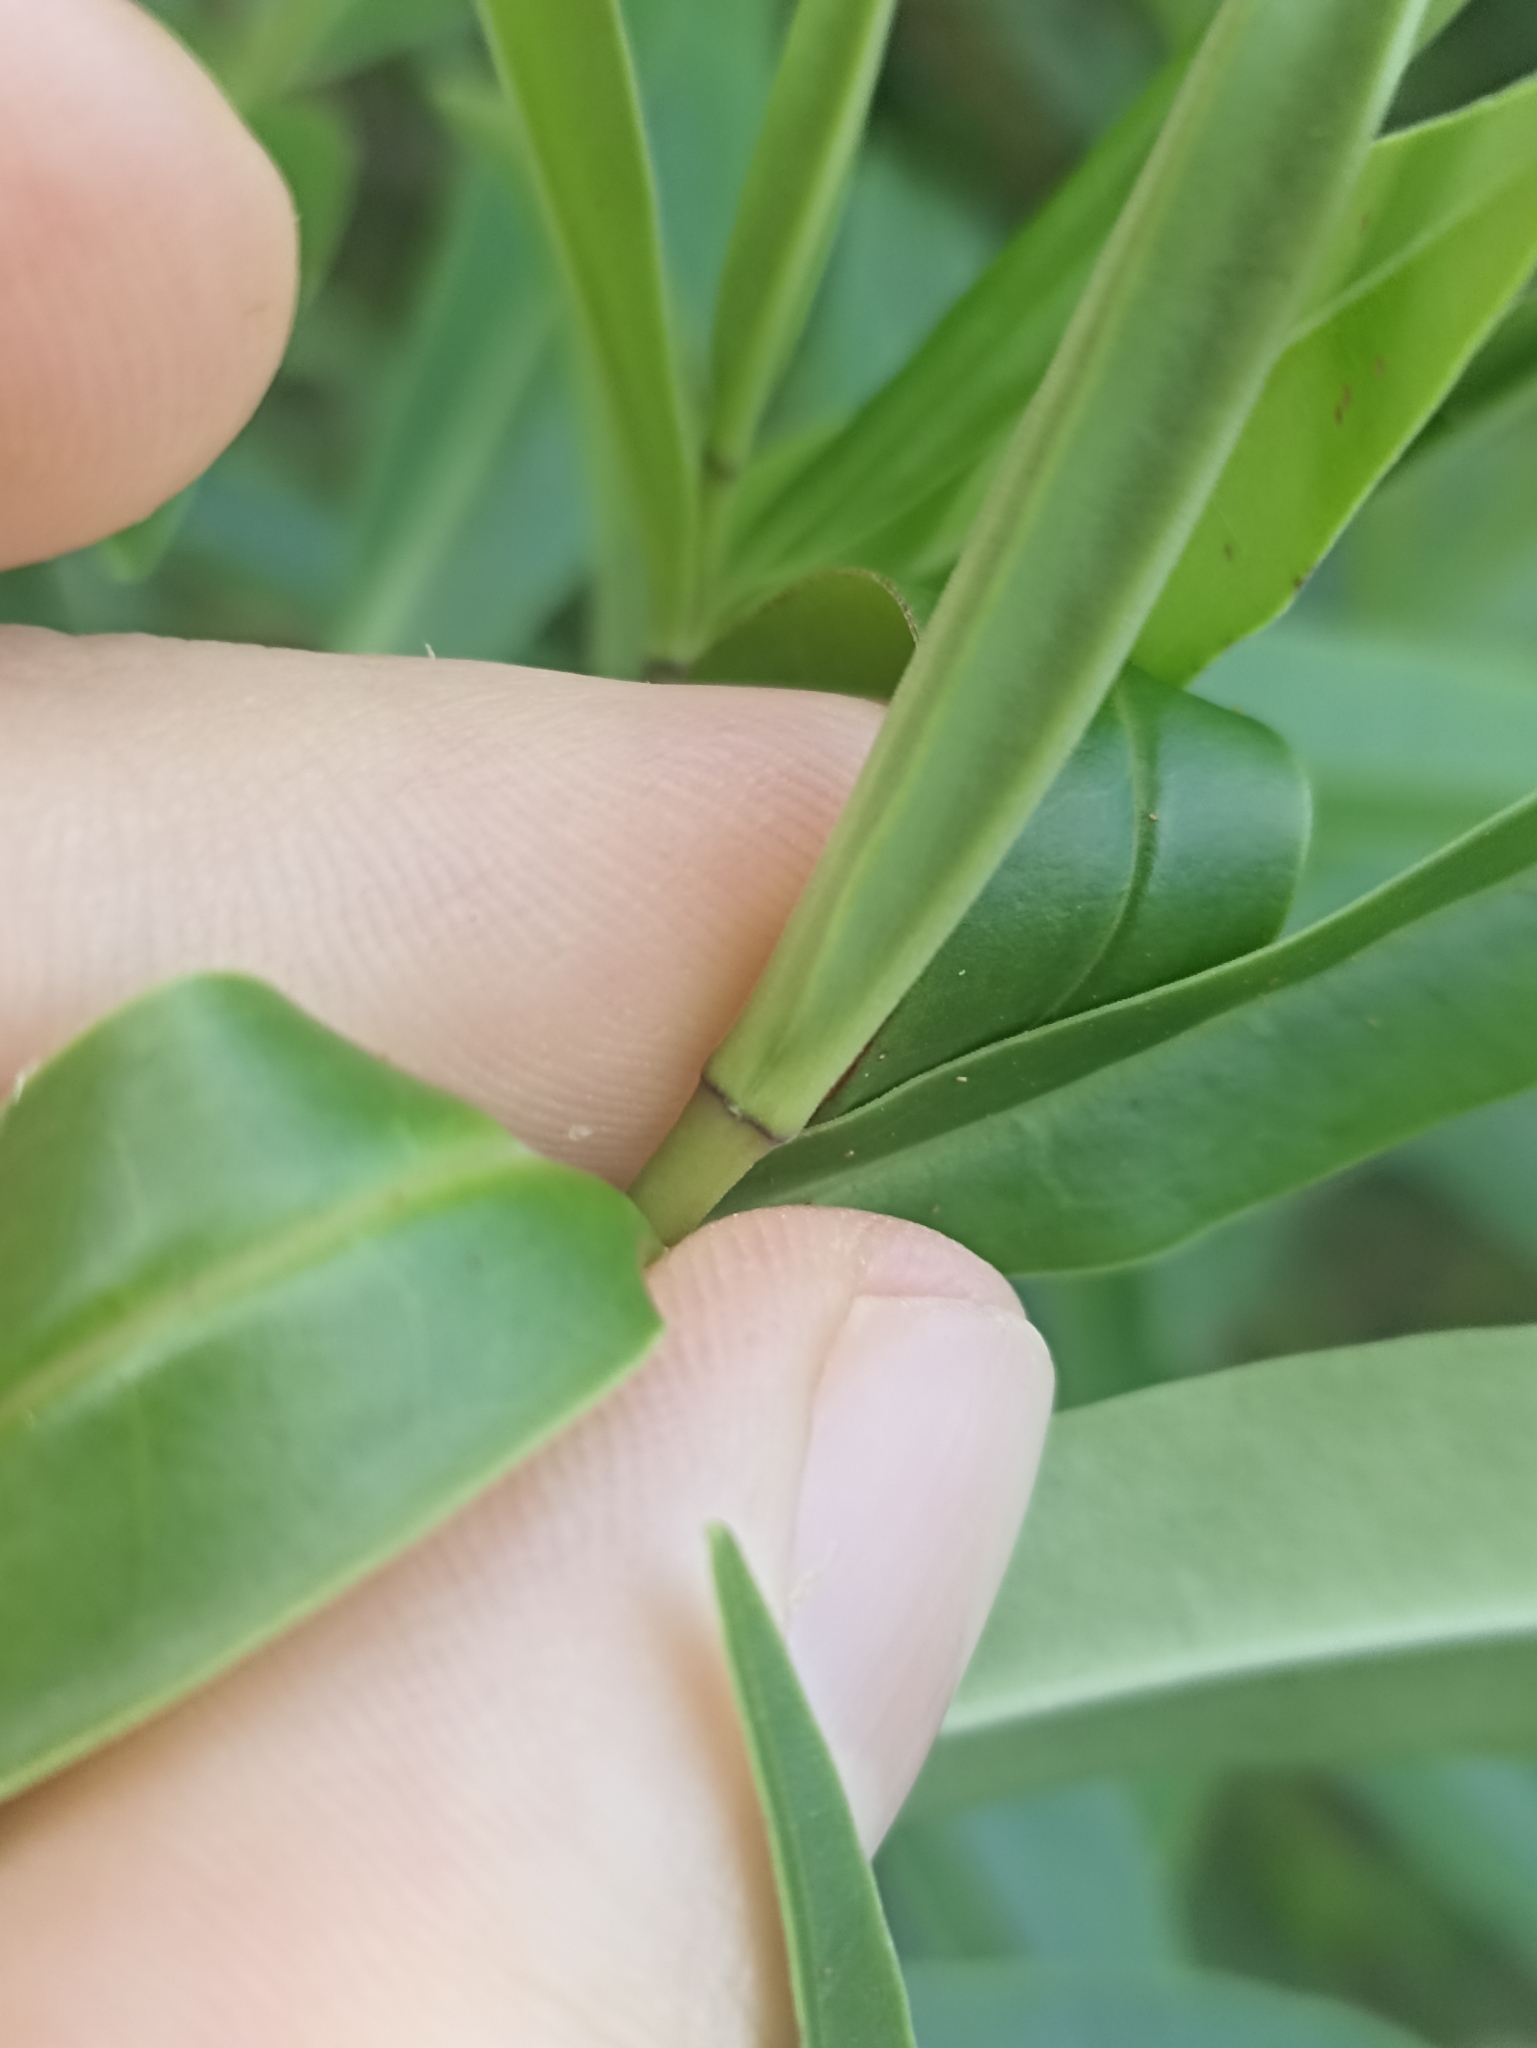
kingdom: Plantae
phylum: Tracheophyta
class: Magnoliopsida
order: Lamiales
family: Plantaginaceae
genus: Veronica
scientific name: Veronica stricta
